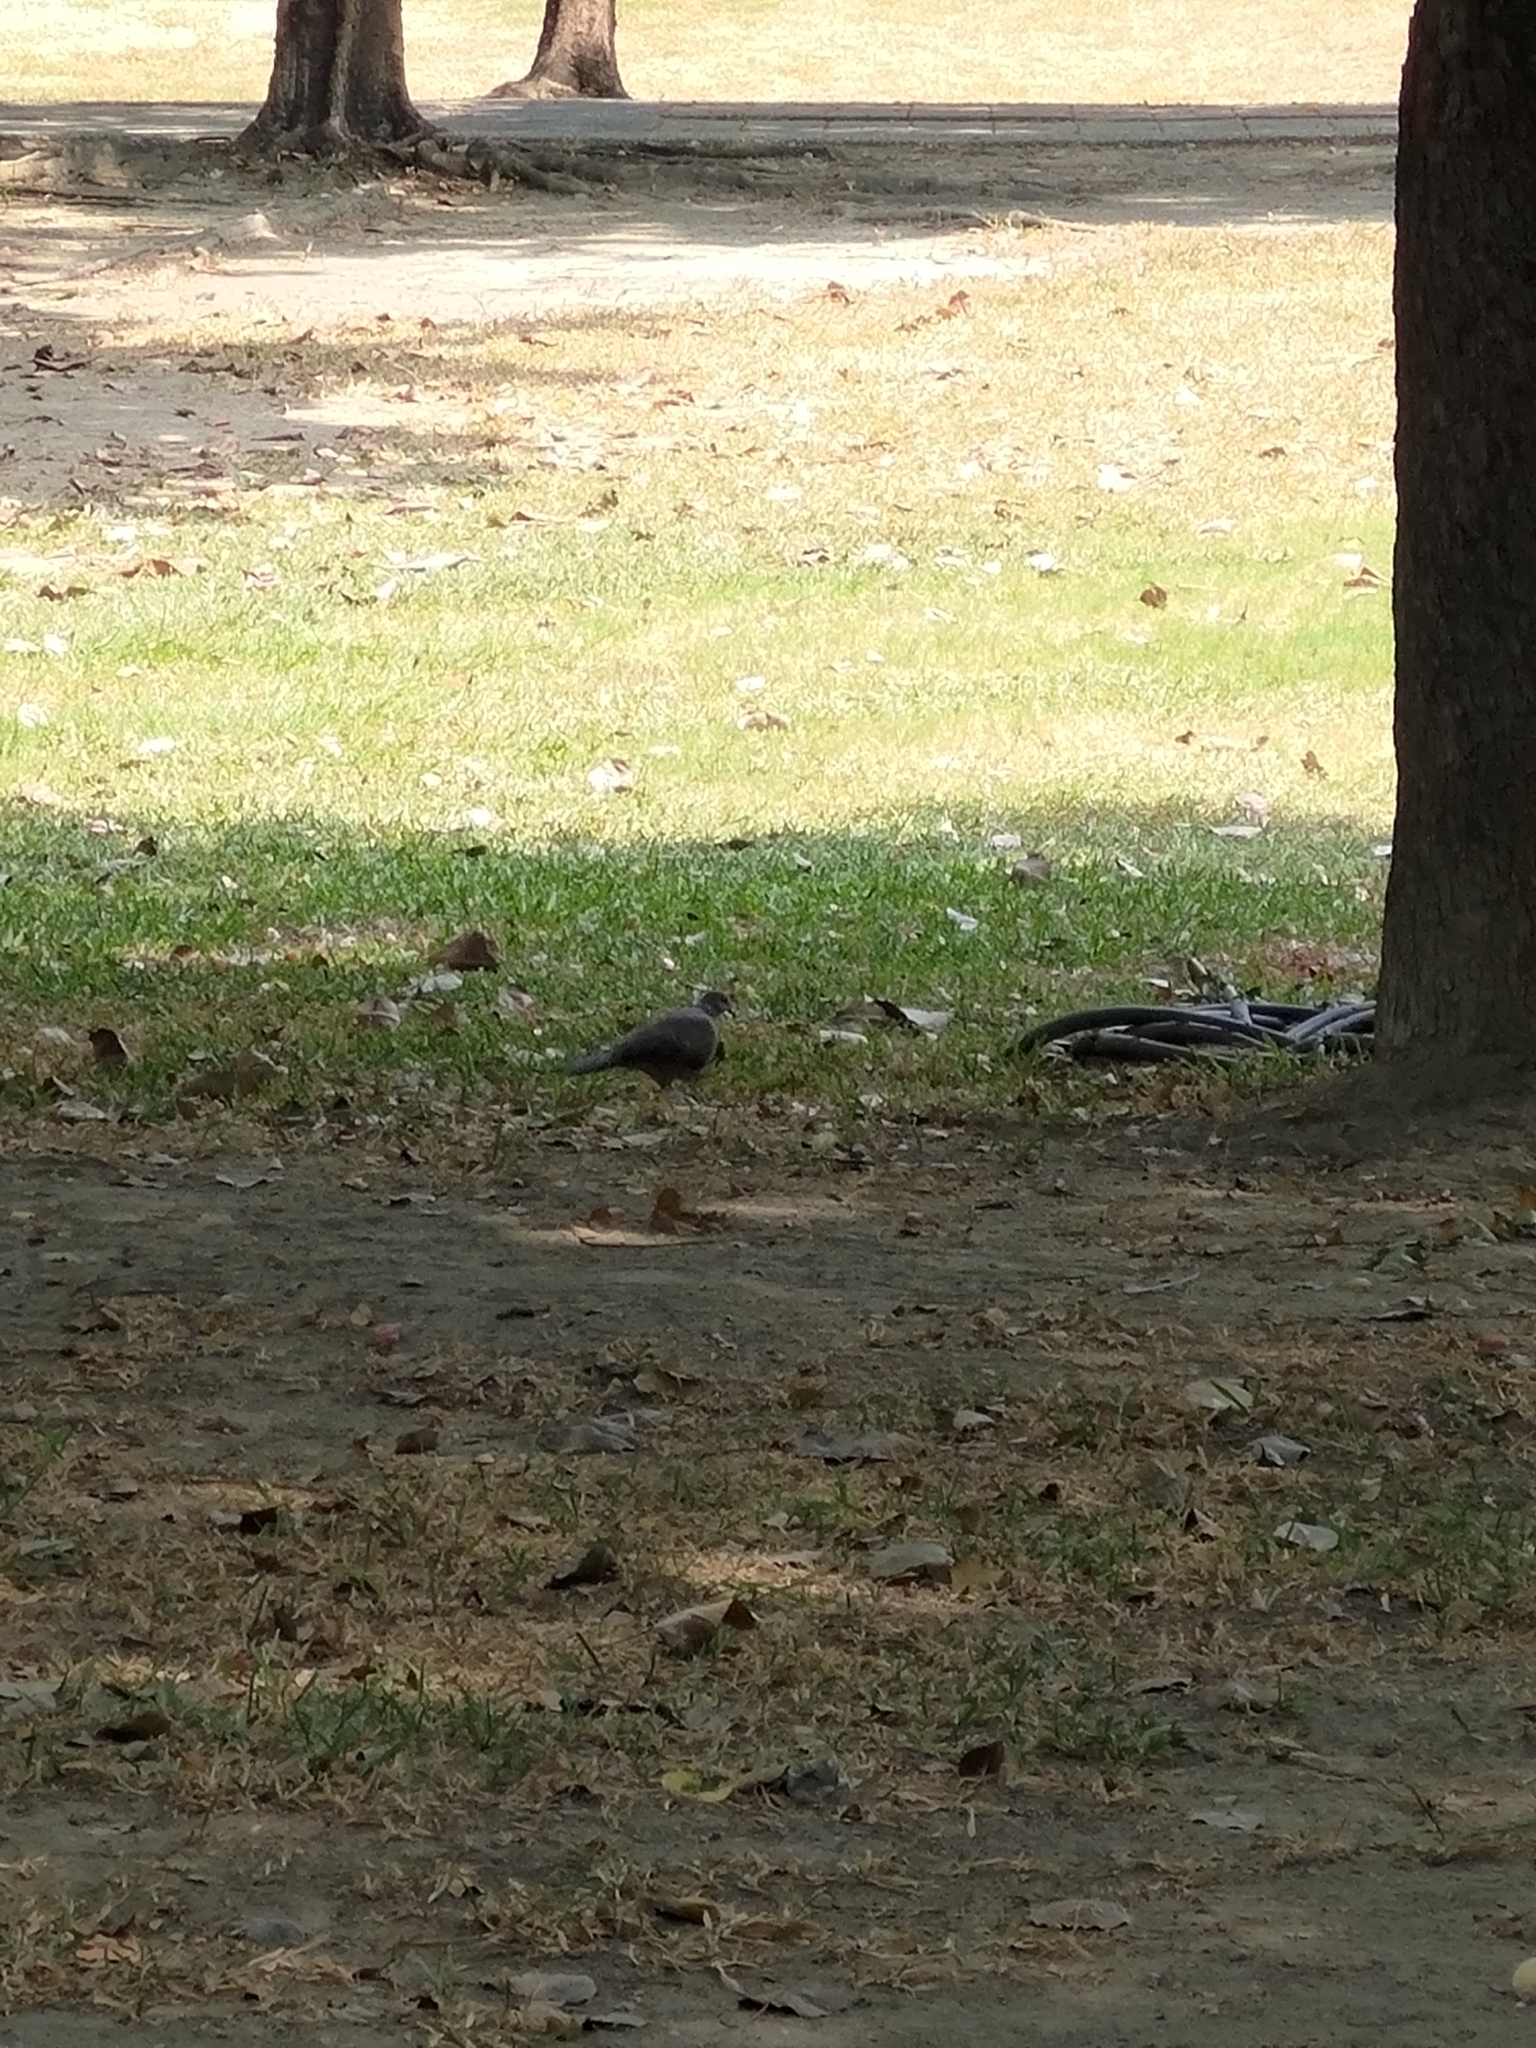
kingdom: Animalia
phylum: Chordata
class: Aves
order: Columbiformes
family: Columbidae
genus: Spilopelia
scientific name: Spilopelia chinensis
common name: Spotted dove
